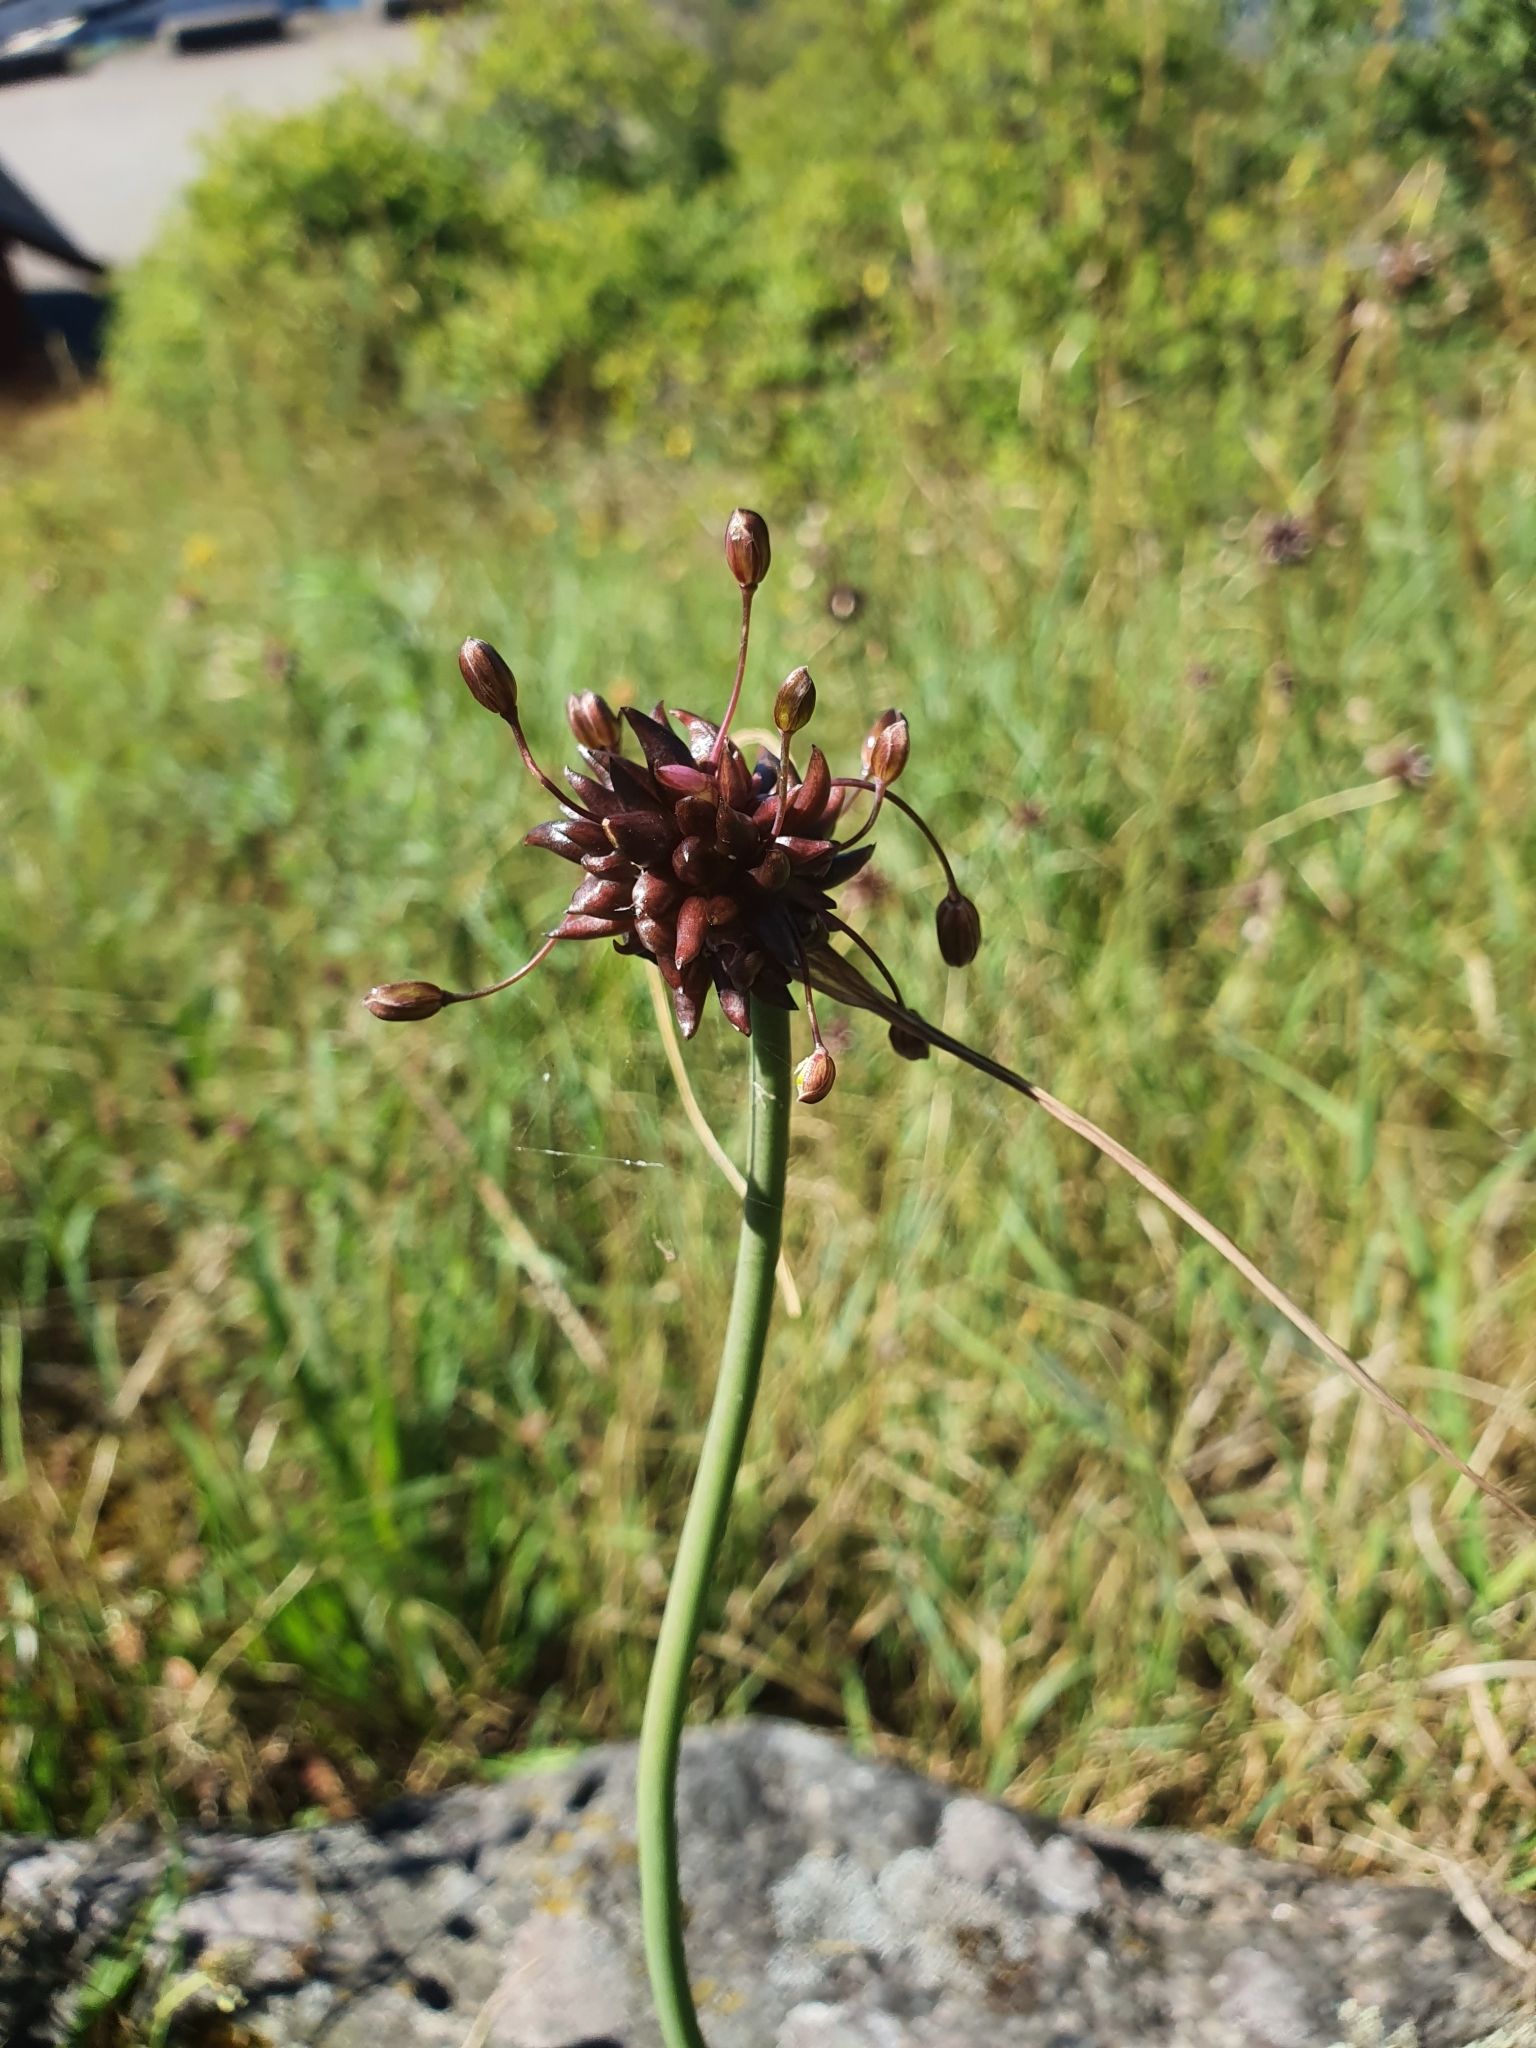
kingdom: Plantae
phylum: Tracheophyta
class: Liliopsida
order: Asparagales
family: Amaryllidaceae
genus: Allium
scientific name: Allium oleraceum
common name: Field garlic
